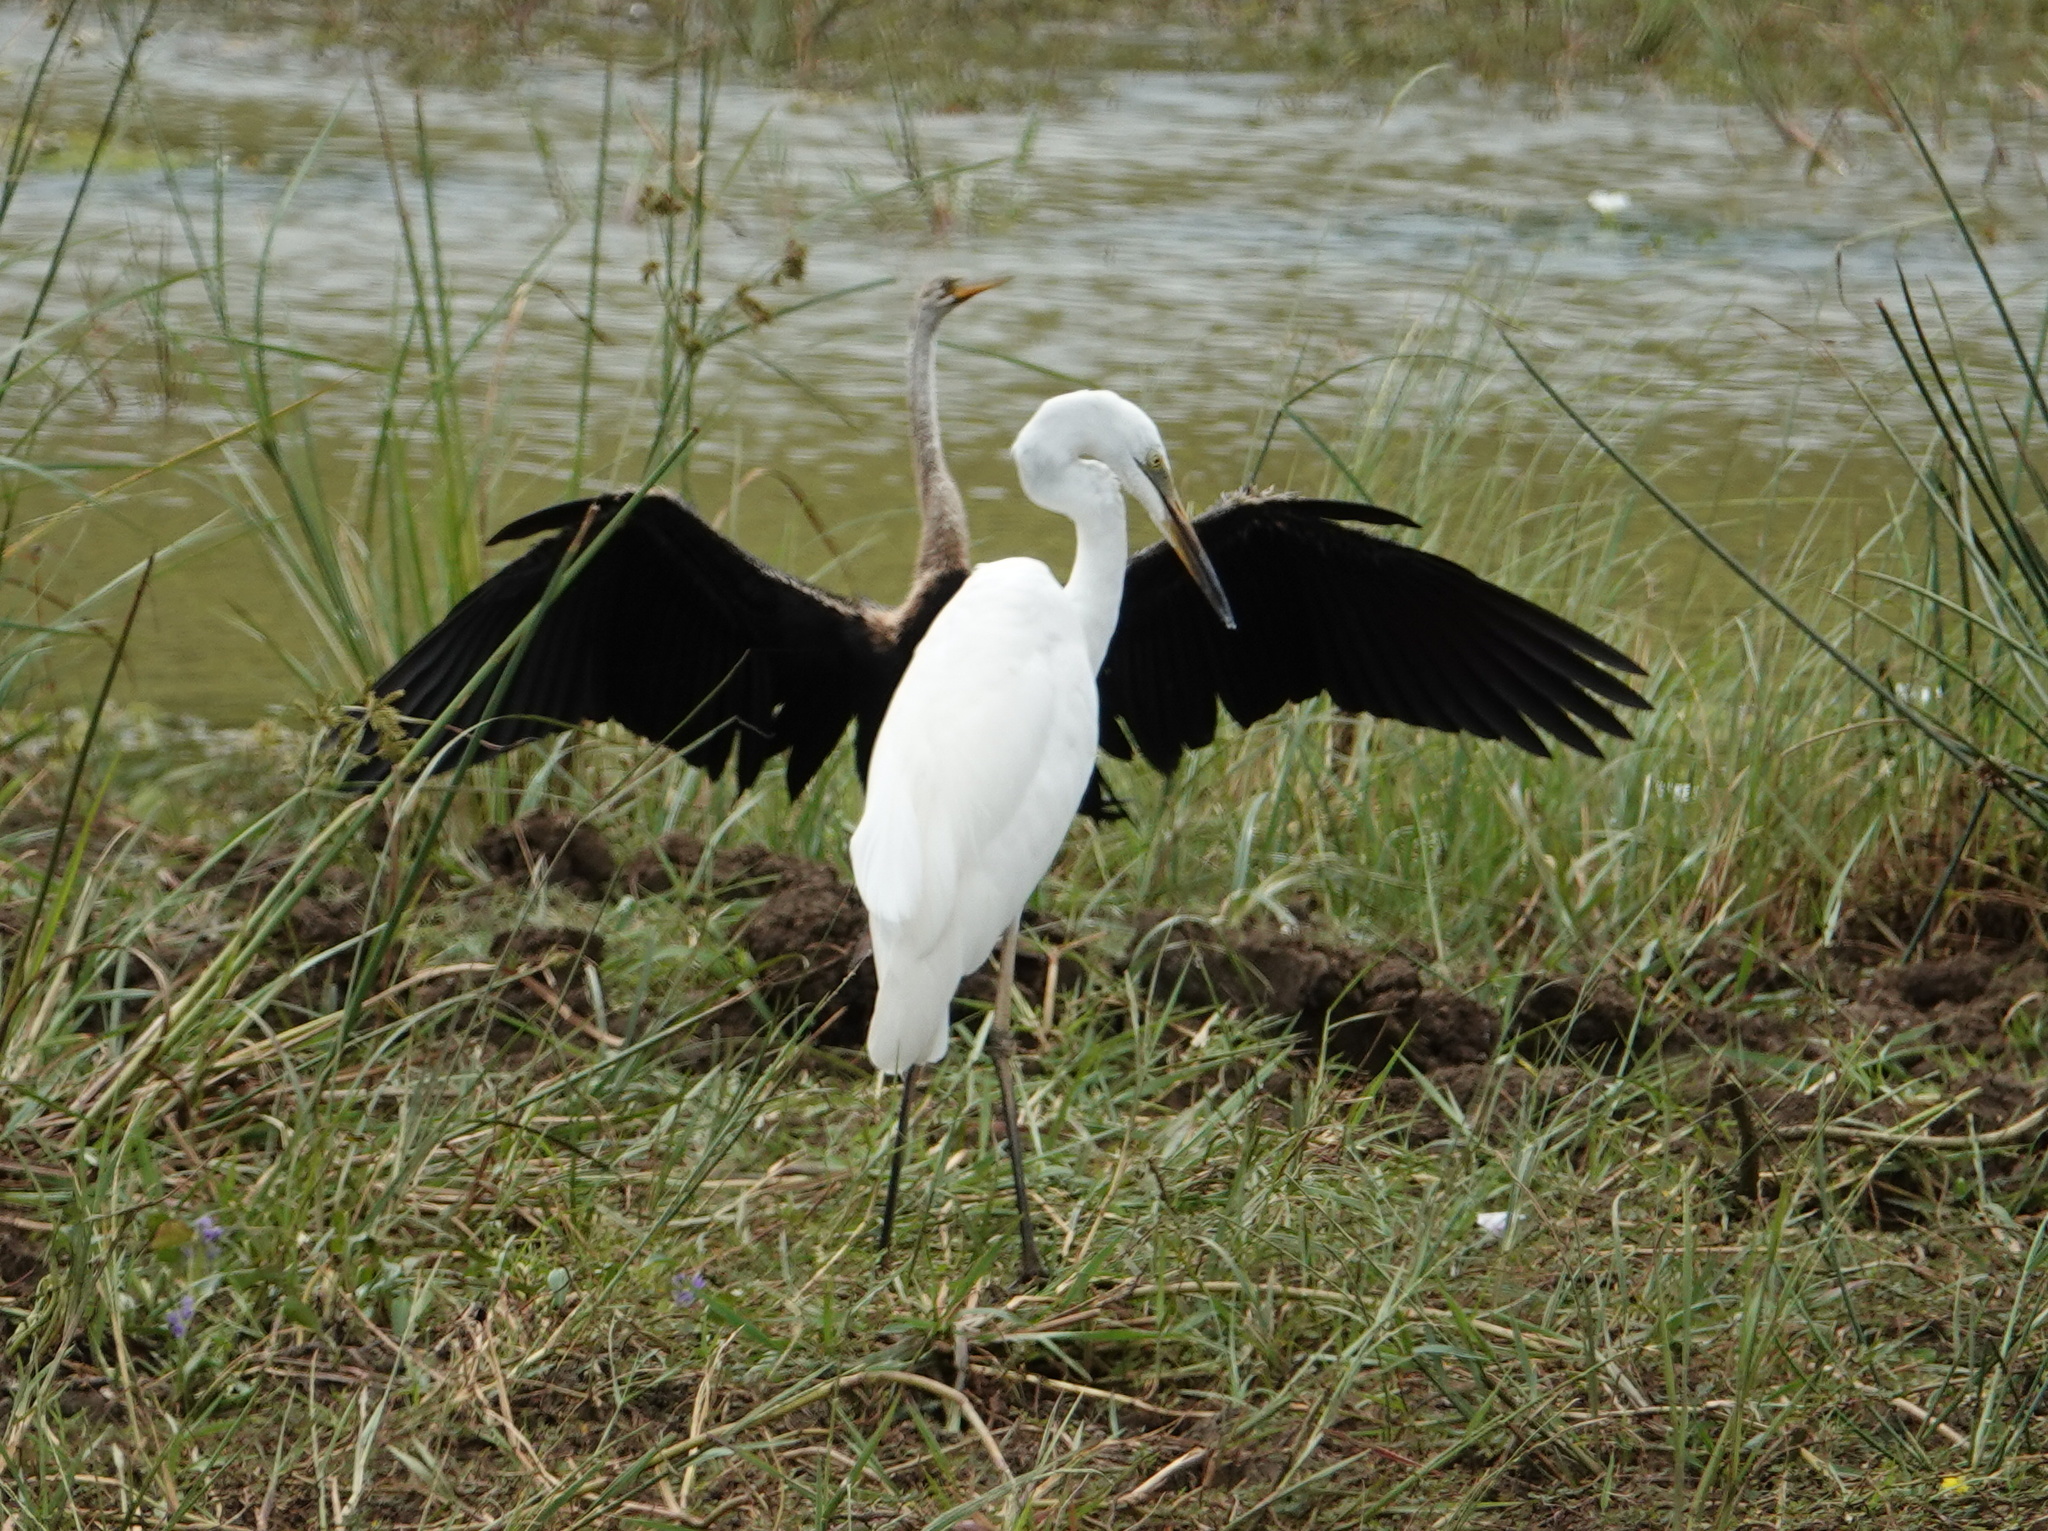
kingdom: Animalia
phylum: Chordata
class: Aves
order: Pelecaniformes
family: Ardeidae
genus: Ardea
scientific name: Ardea alba
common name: Great egret
